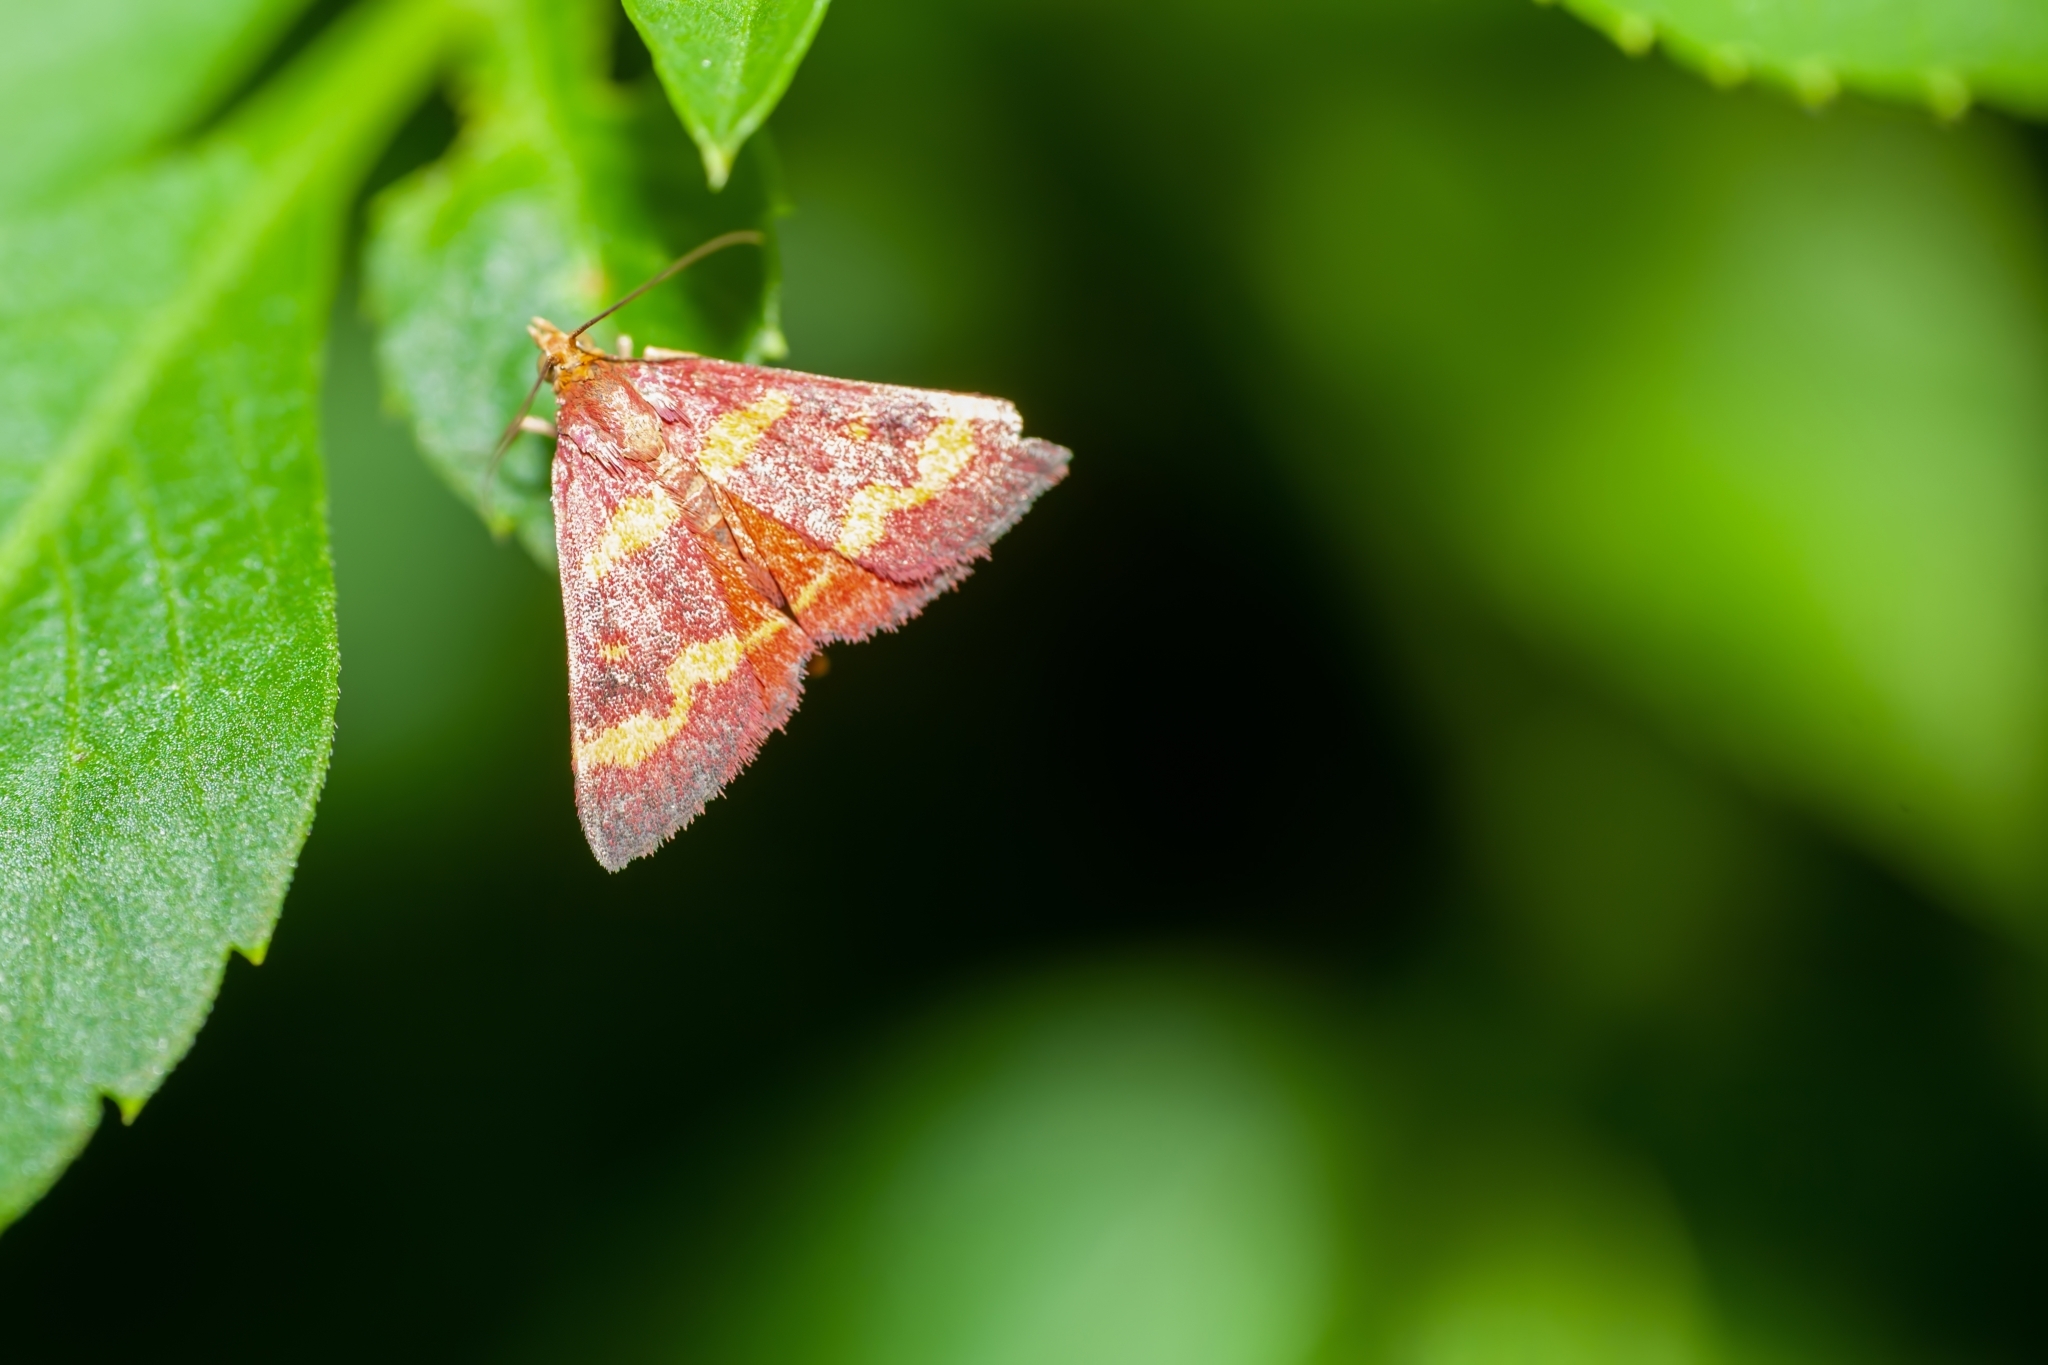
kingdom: Animalia
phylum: Arthropoda
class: Insecta
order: Lepidoptera
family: Crambidae
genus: Pyrausta
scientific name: Pyrausta tyralis
